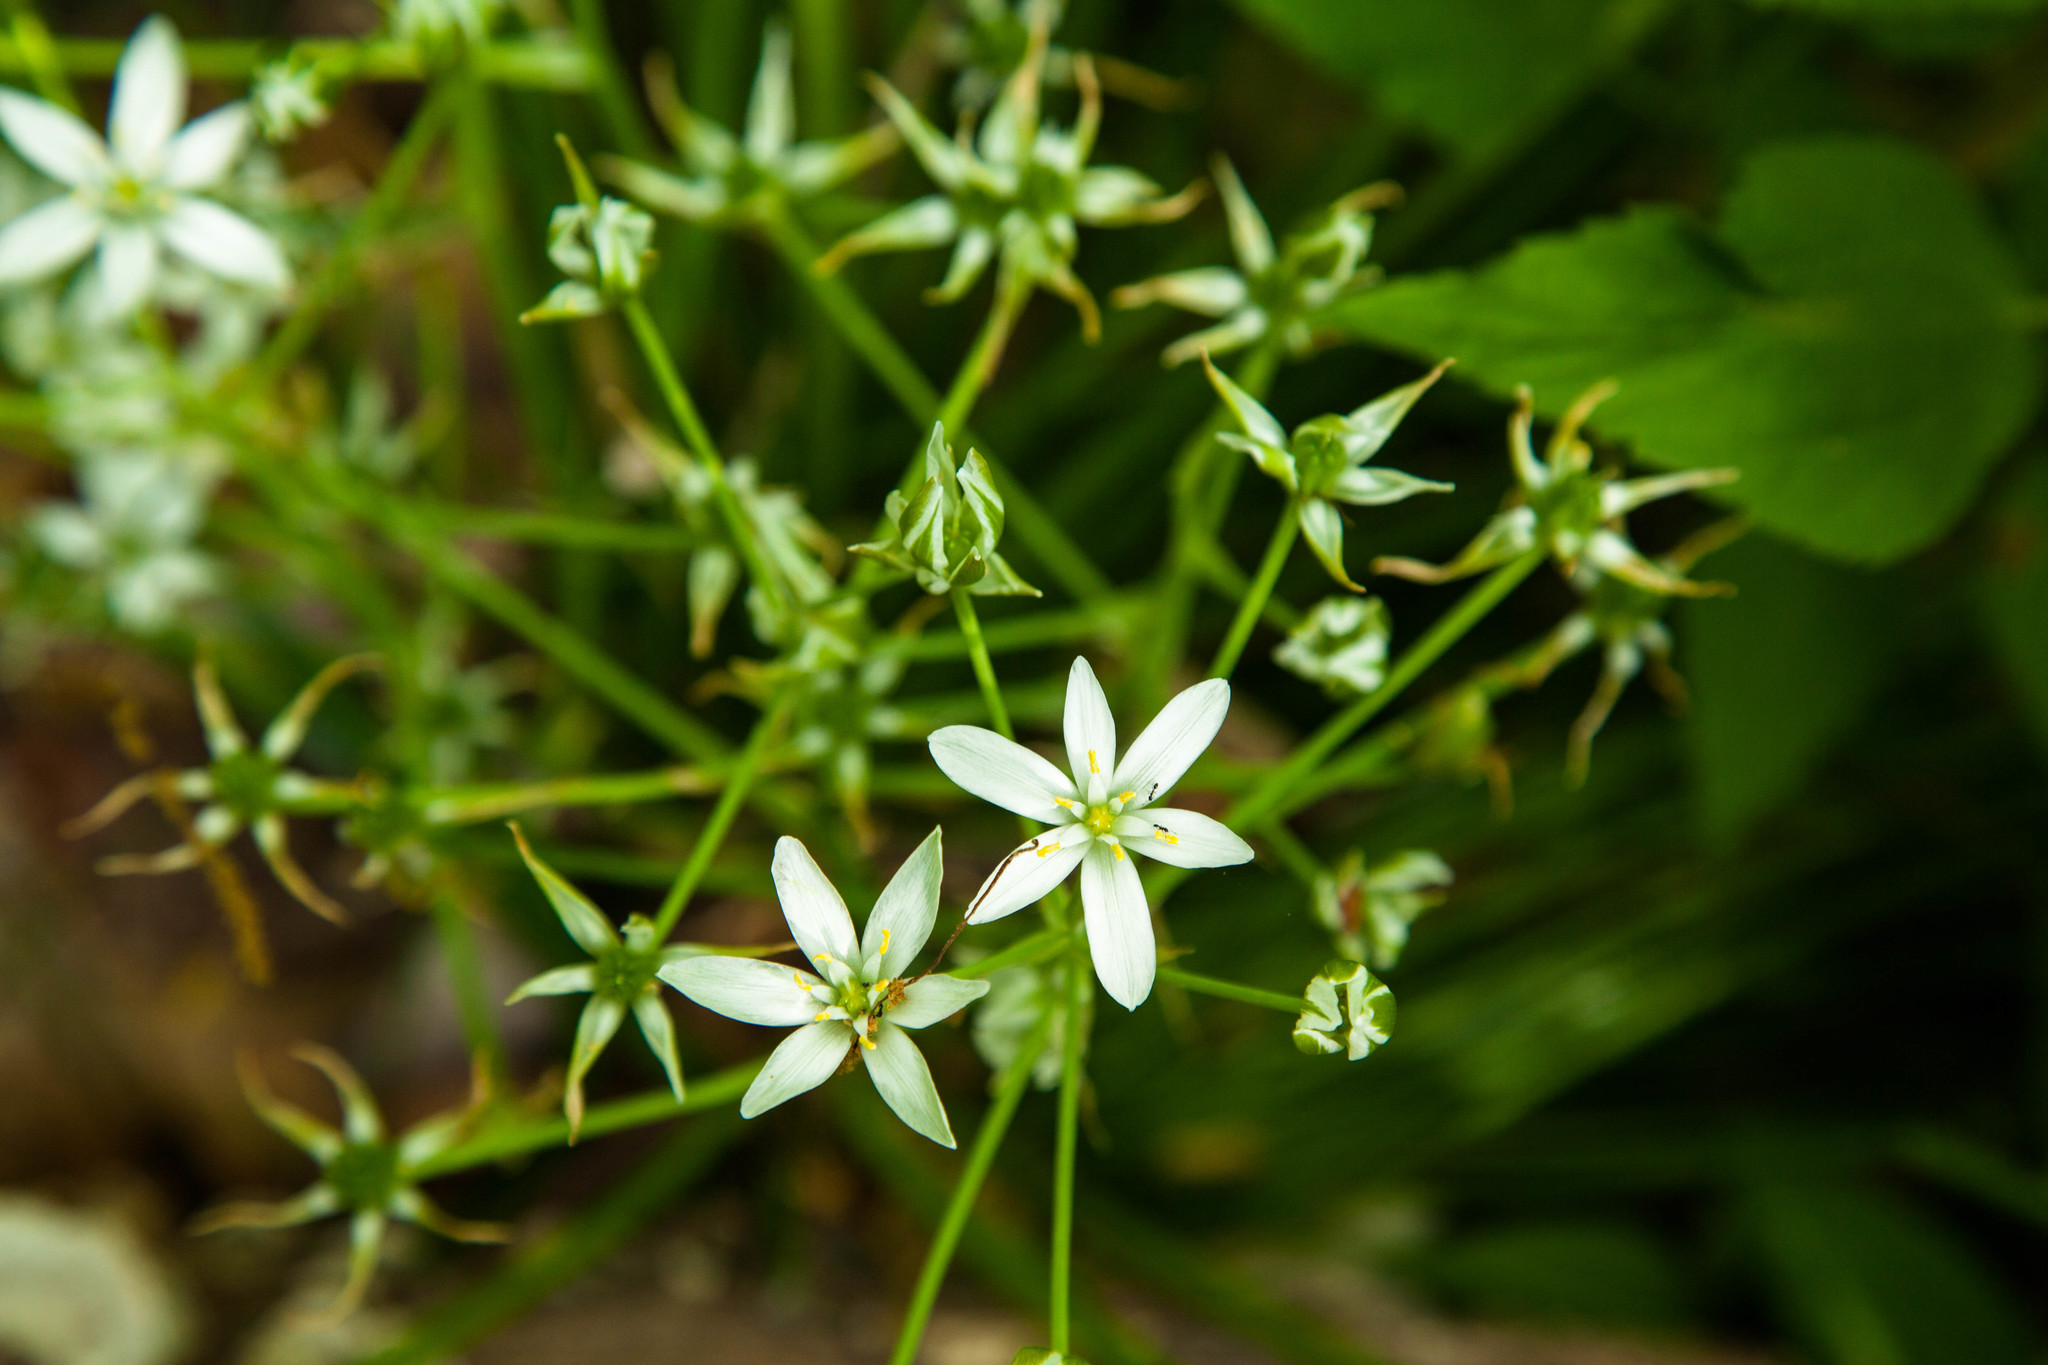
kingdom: Plantae
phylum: Tracheophyta
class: Liliopsida
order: Asparagales
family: Asparagaceae
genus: Ornithogalum
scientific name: Ornithogalum umbellatum
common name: Garden star-of-bethlehem
